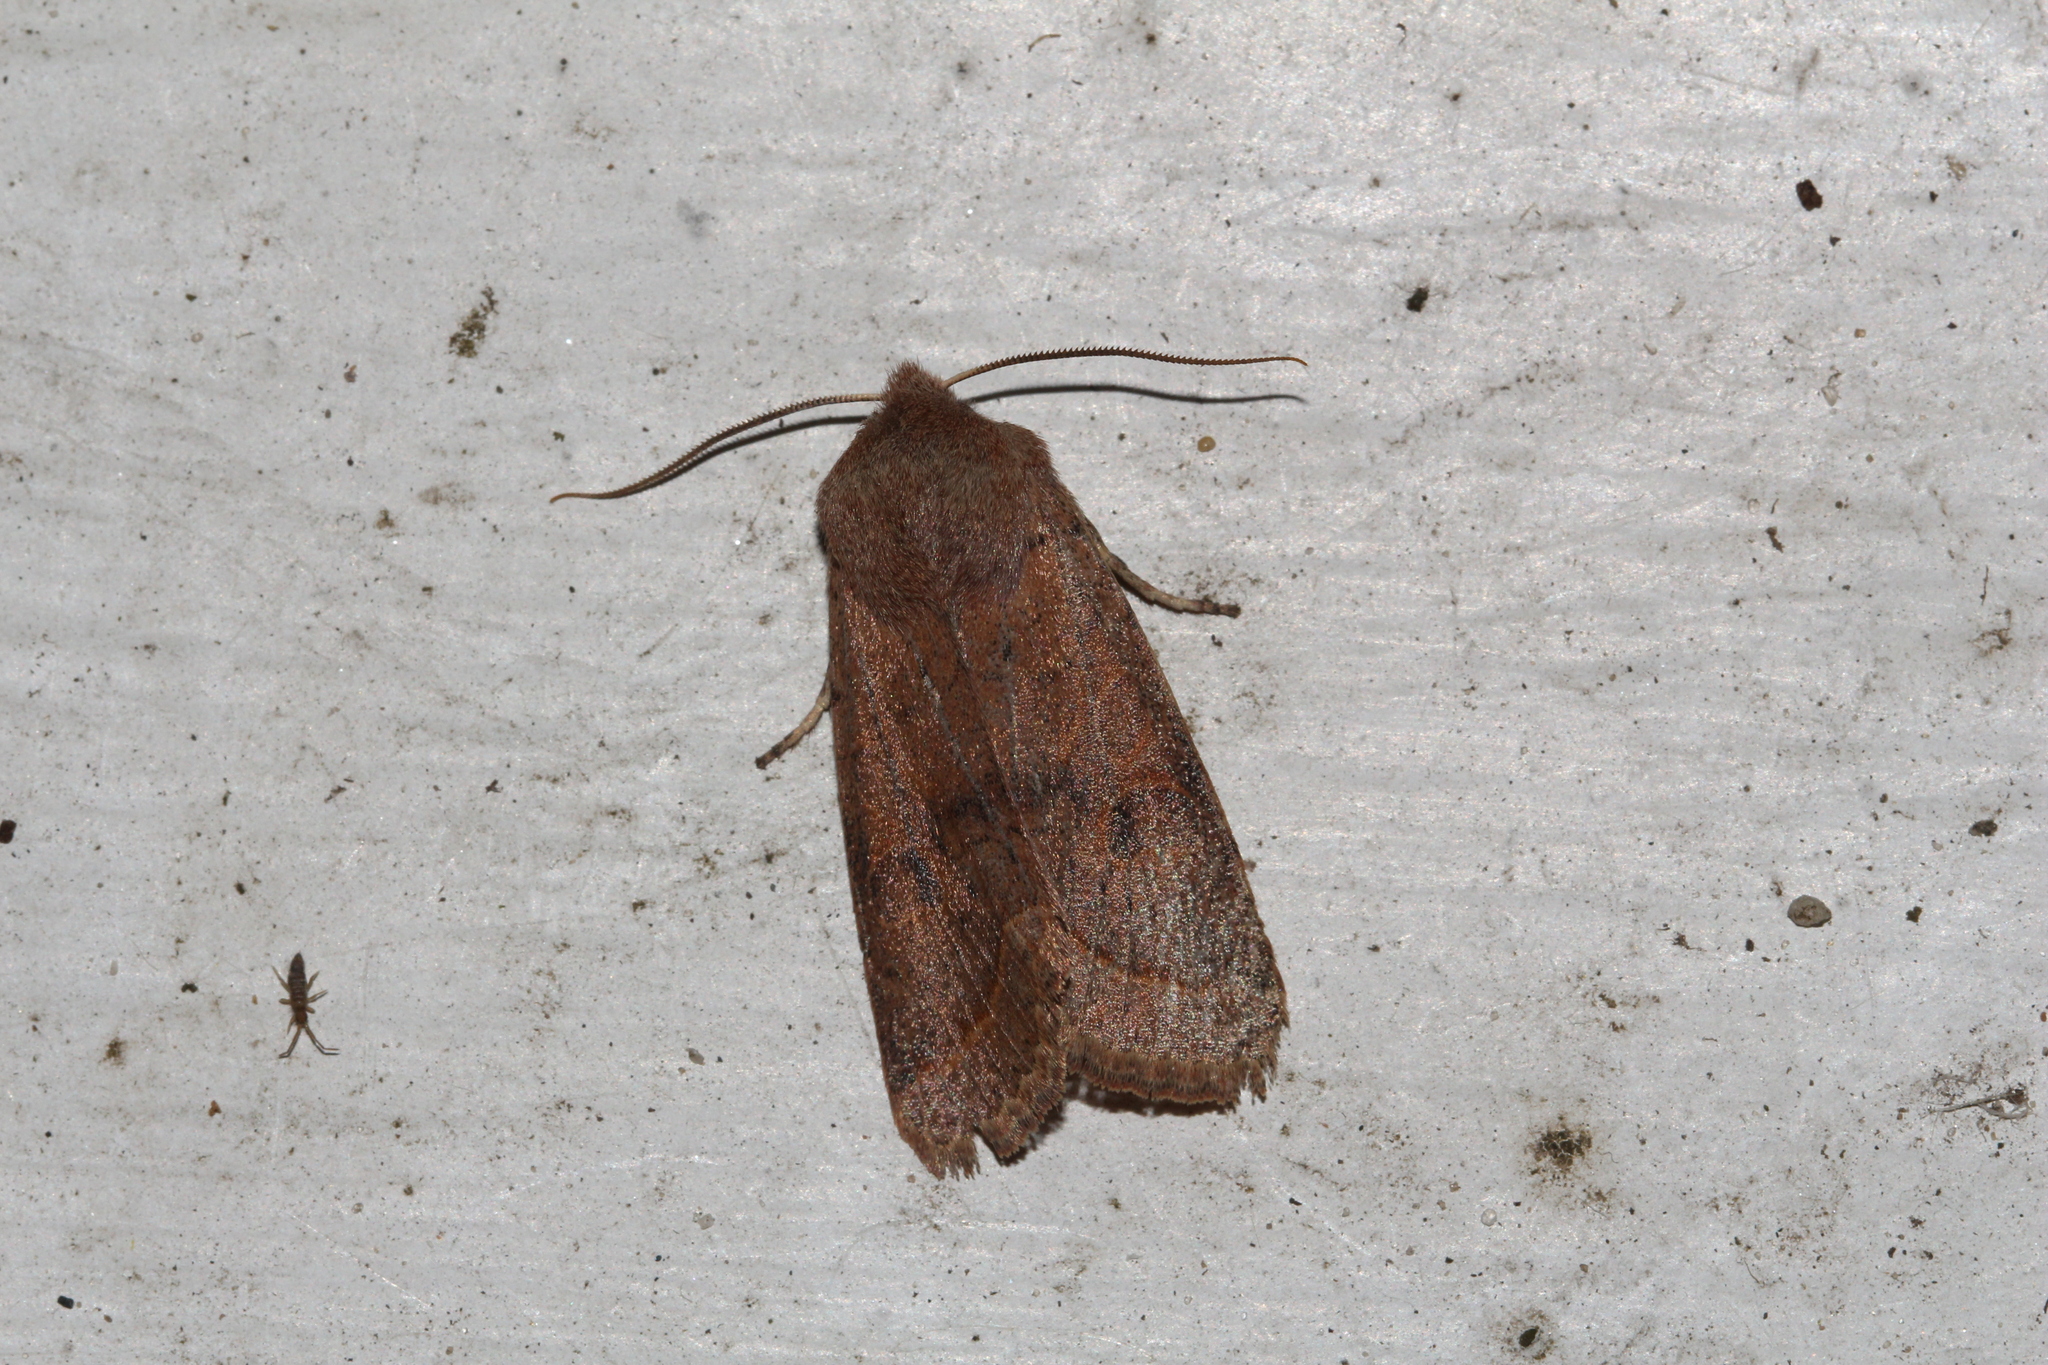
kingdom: Animalia
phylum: Arthropoda
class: Insecta
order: Lepidoptera
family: Noctuidae
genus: Orthosia
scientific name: Orthosia cerasi
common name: Common quaker
